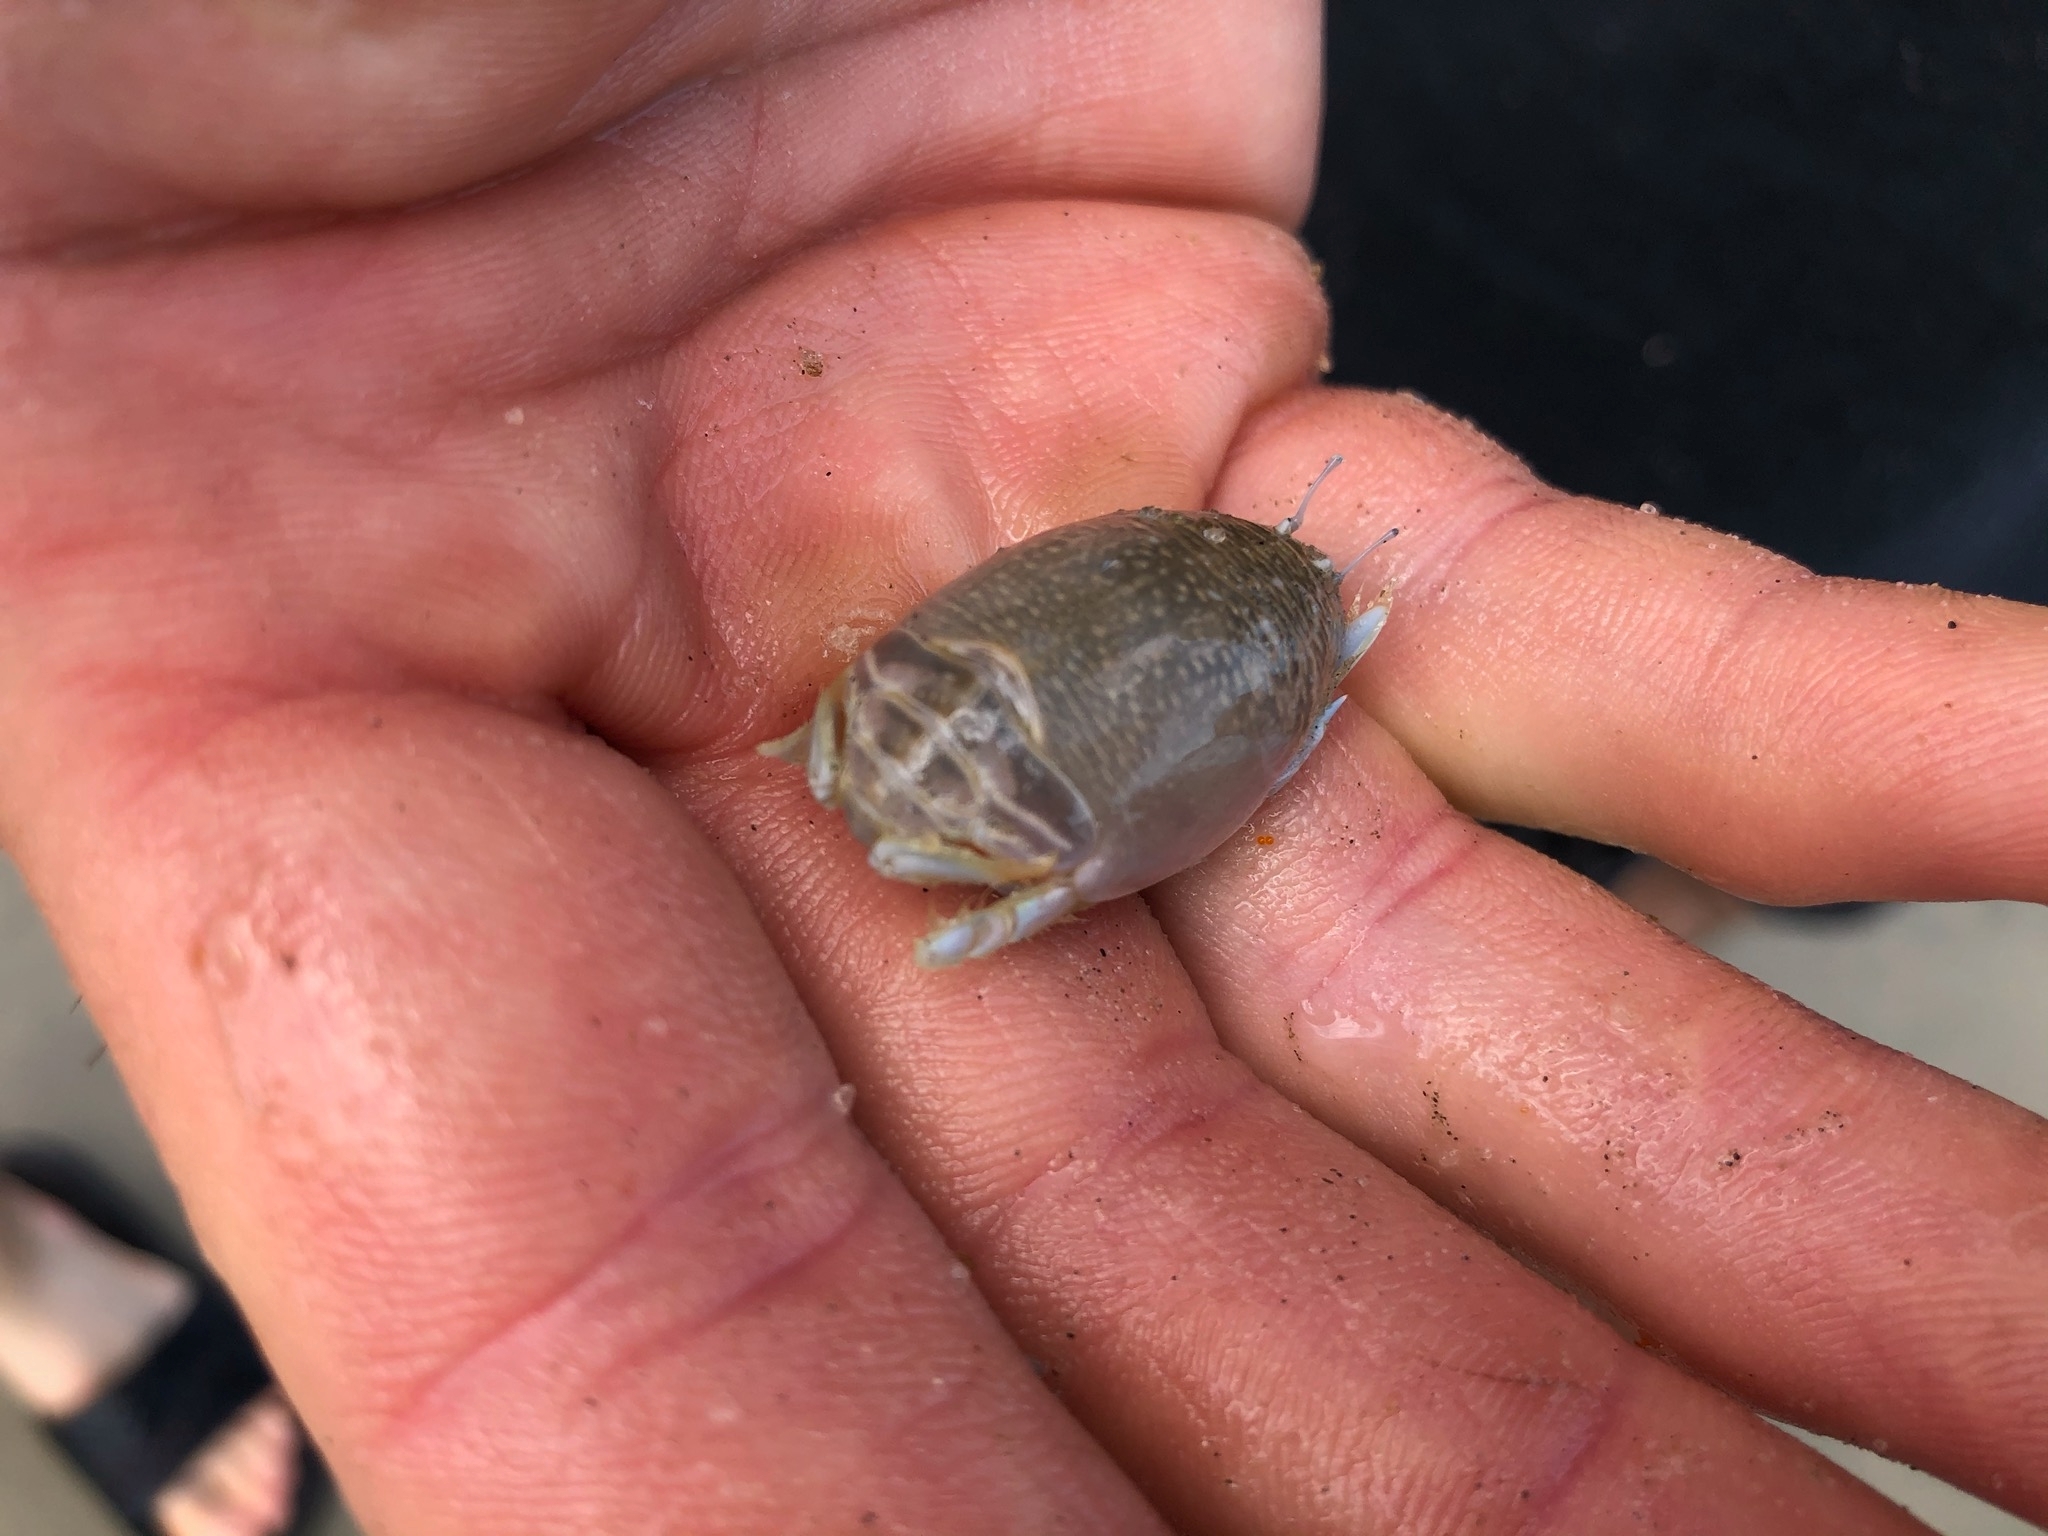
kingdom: Animalia
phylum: Arthropoda
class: Malacostraca
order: Decapoda
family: Hippidae
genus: Emerita
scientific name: Emerita talpoida
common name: Atlantic sand crab
